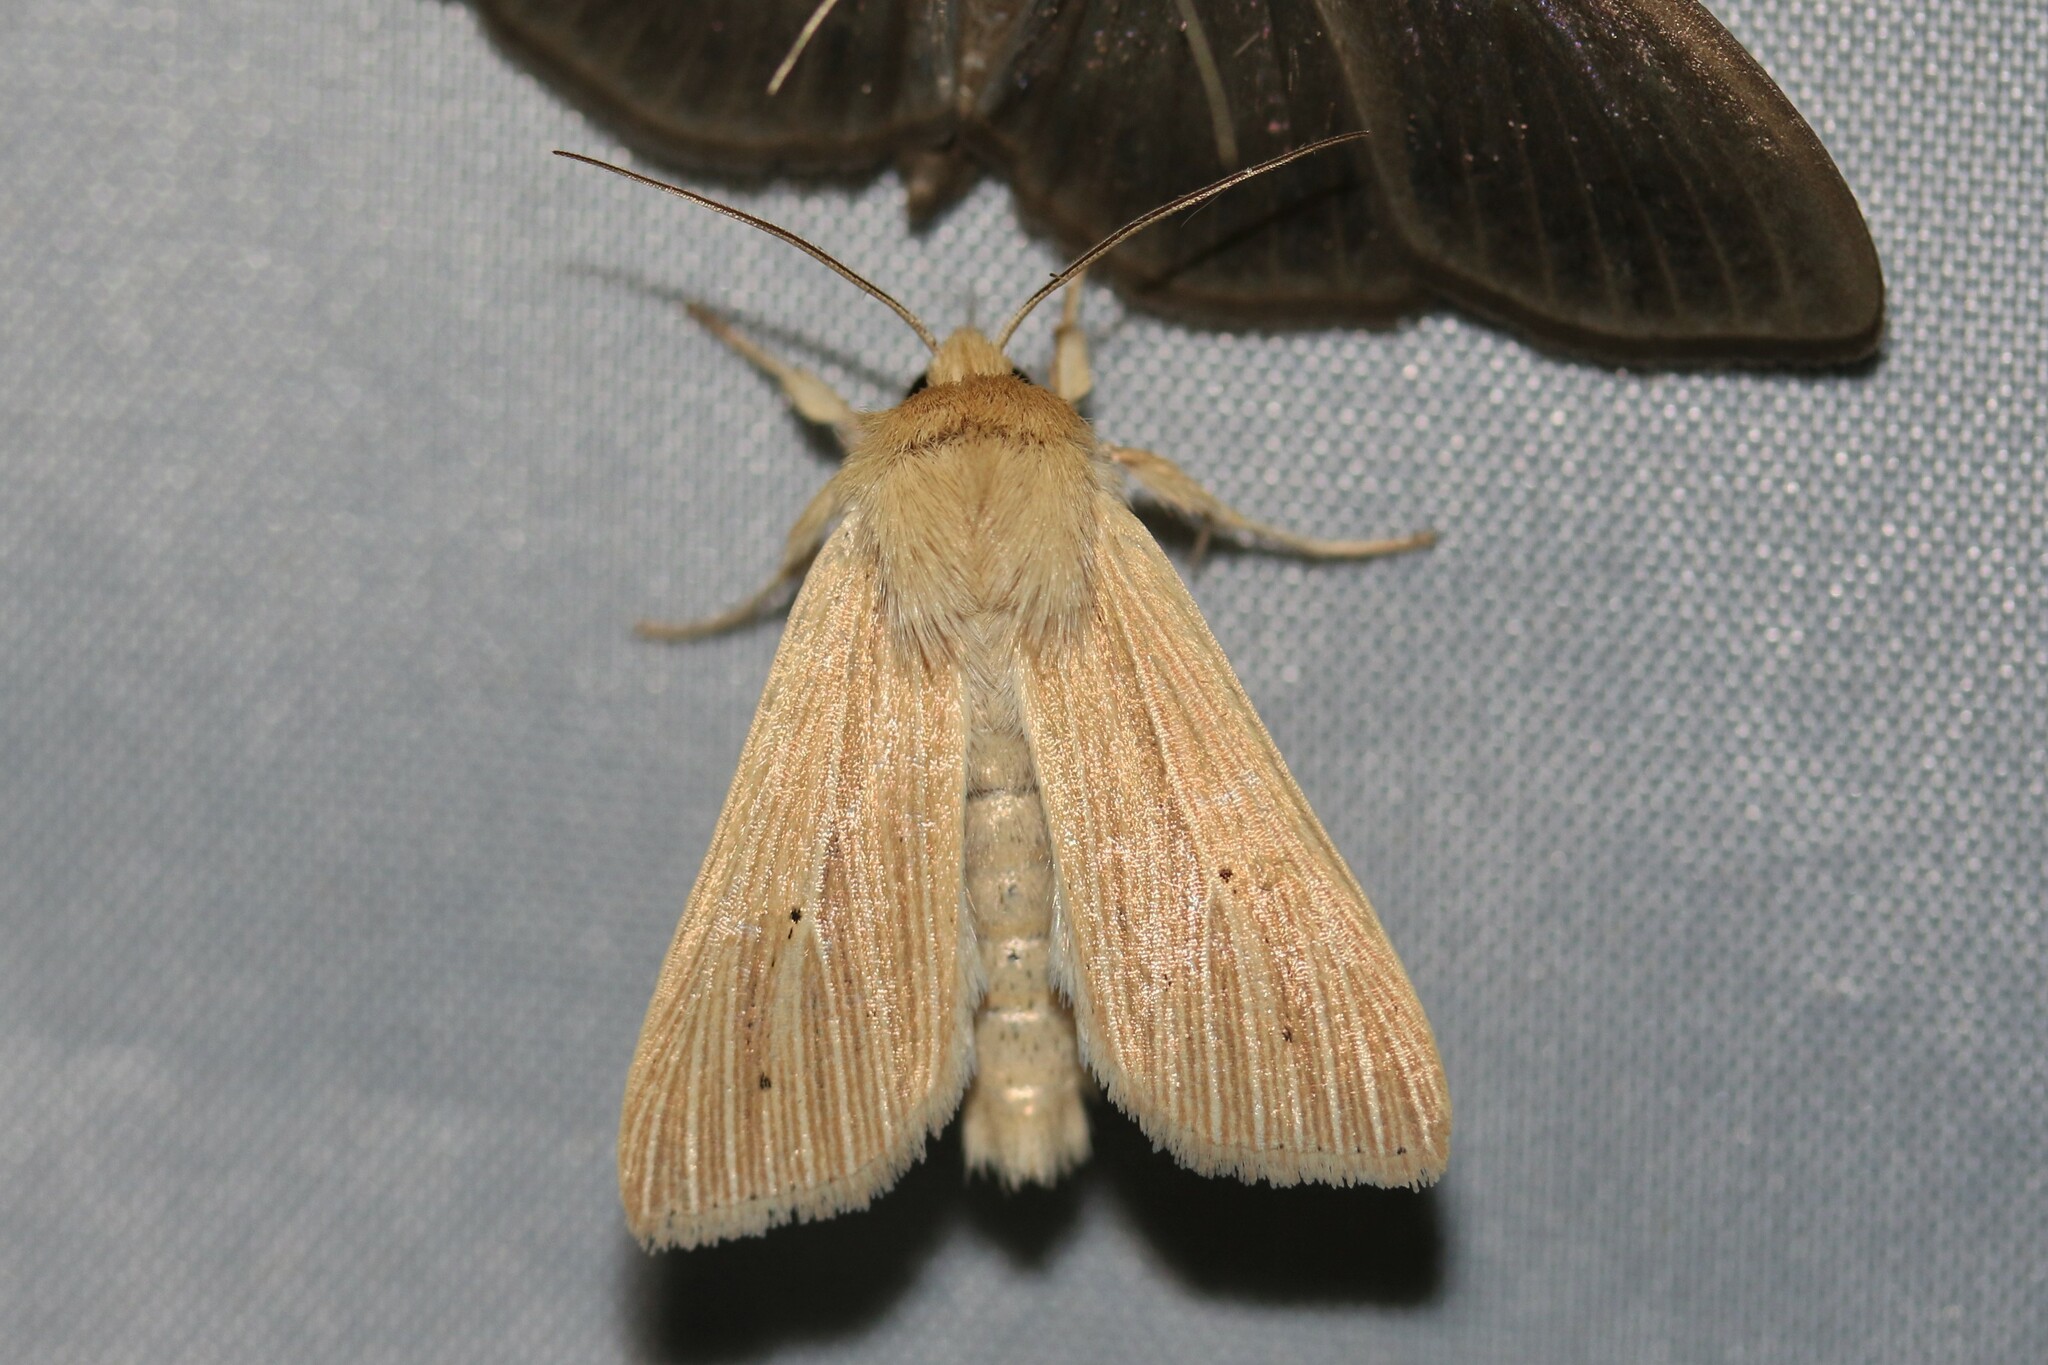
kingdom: Animalia
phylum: Arthropoda
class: Insecta
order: Lepidoptera
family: Noctuidae
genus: Mythimna
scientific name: Mythimna pallens
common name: Common wainscot
